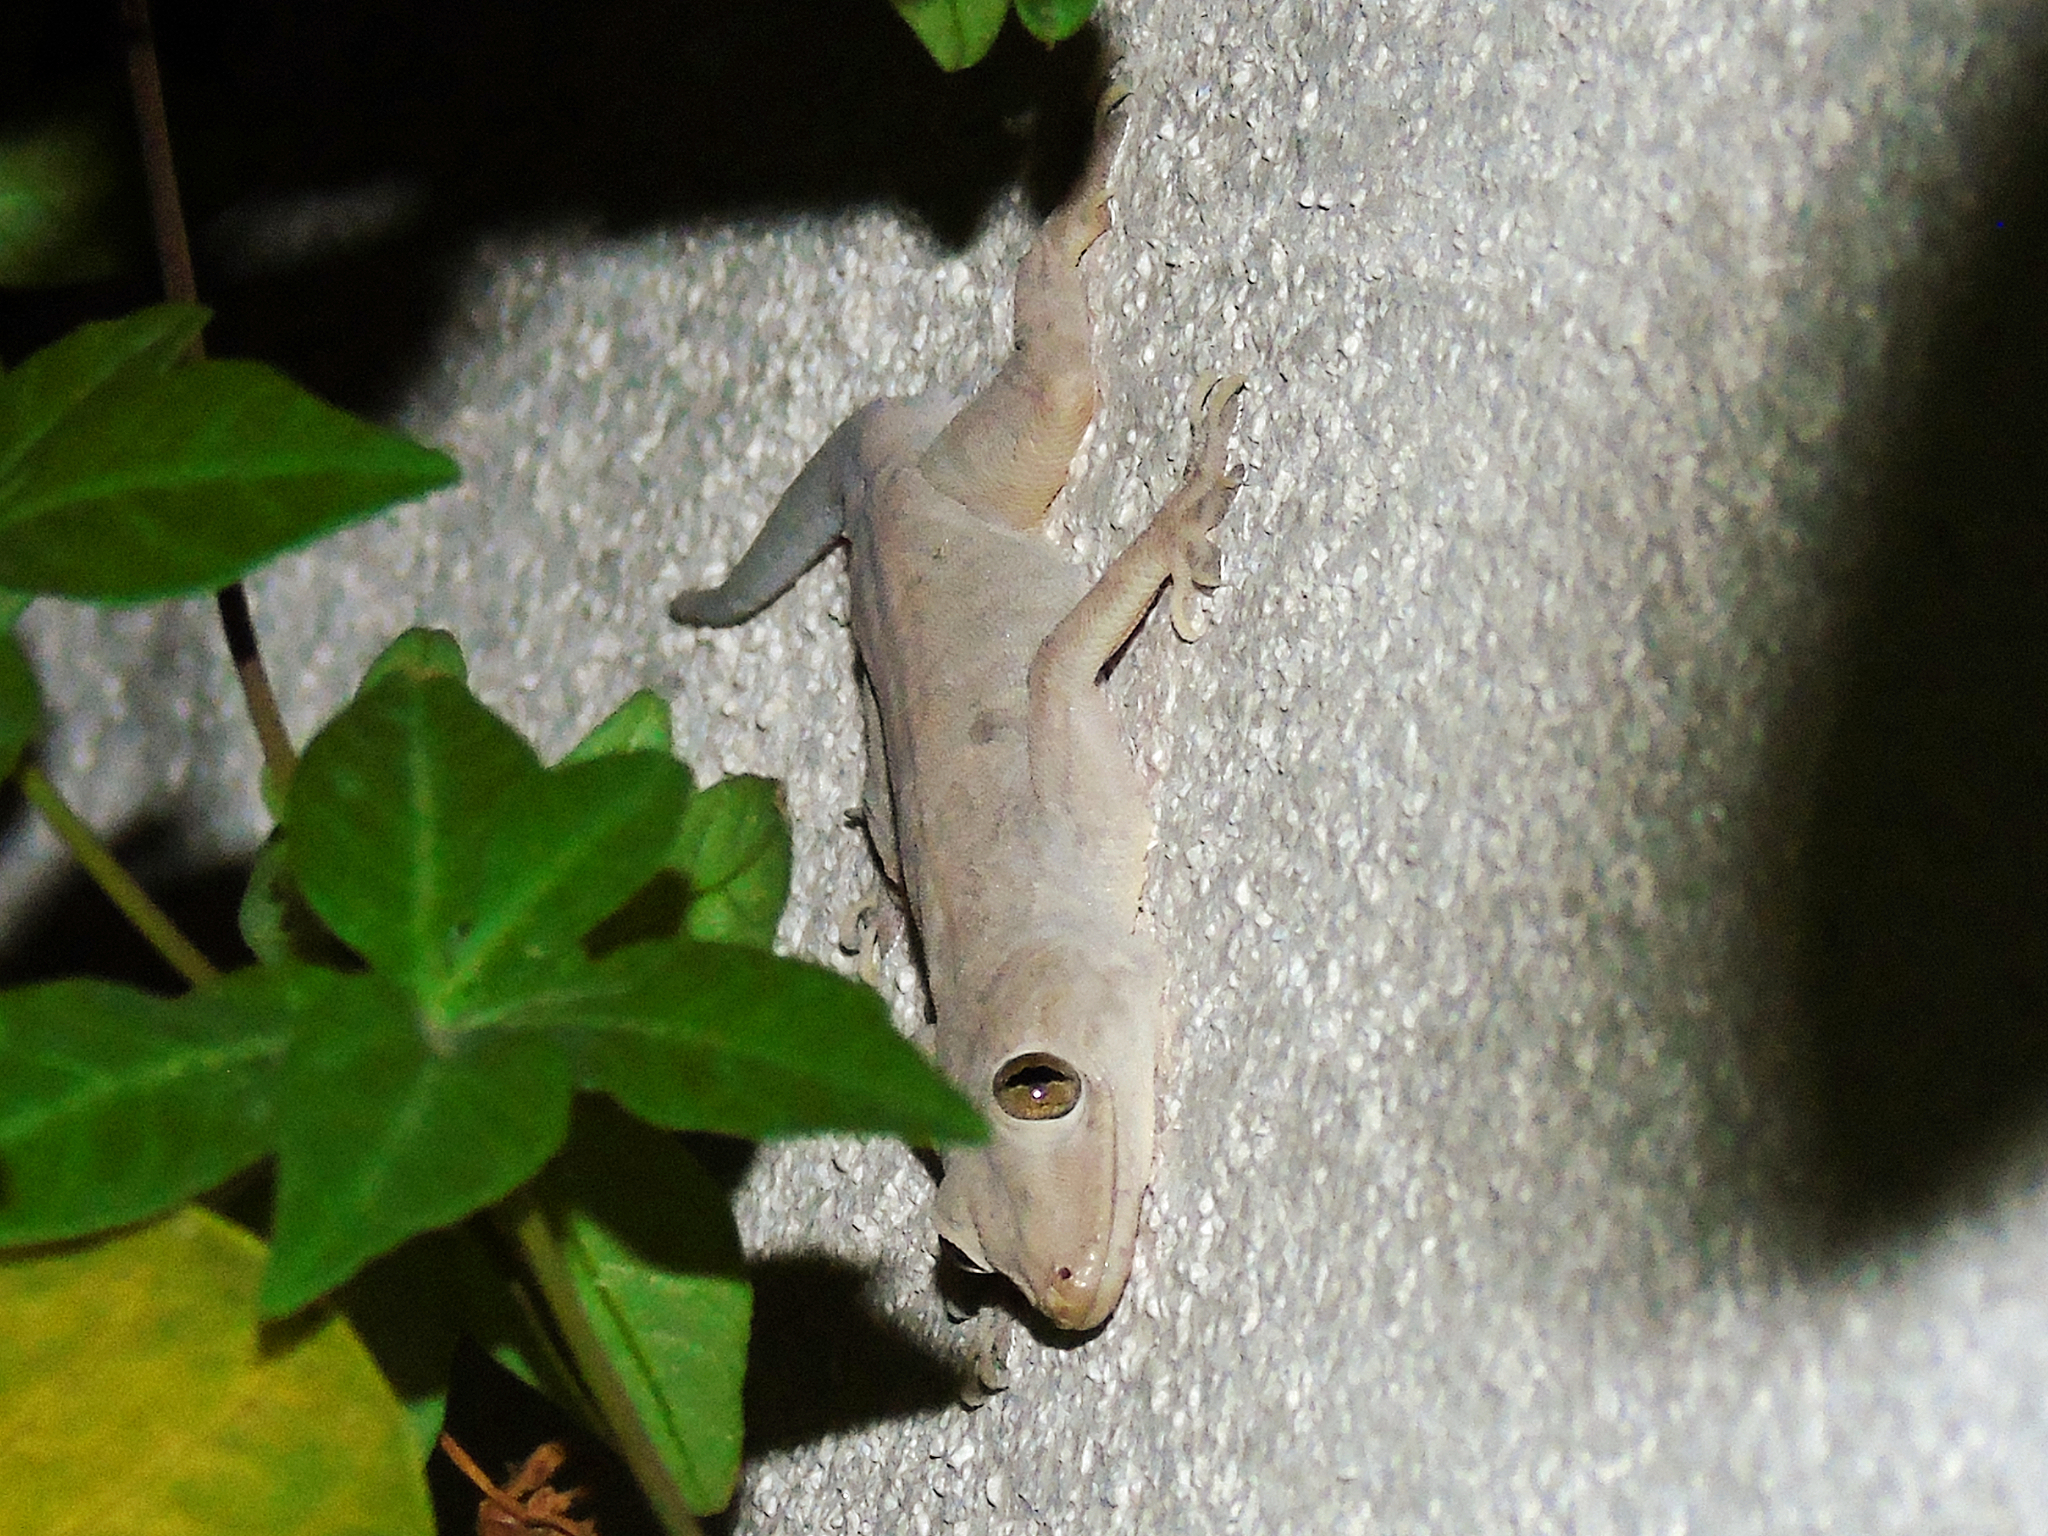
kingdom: Animalia
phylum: Chordata
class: Squamata
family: Gekkonidae
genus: Hemidactylus
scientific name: Hemidactylus flaviviridis
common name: Northern house gecko
